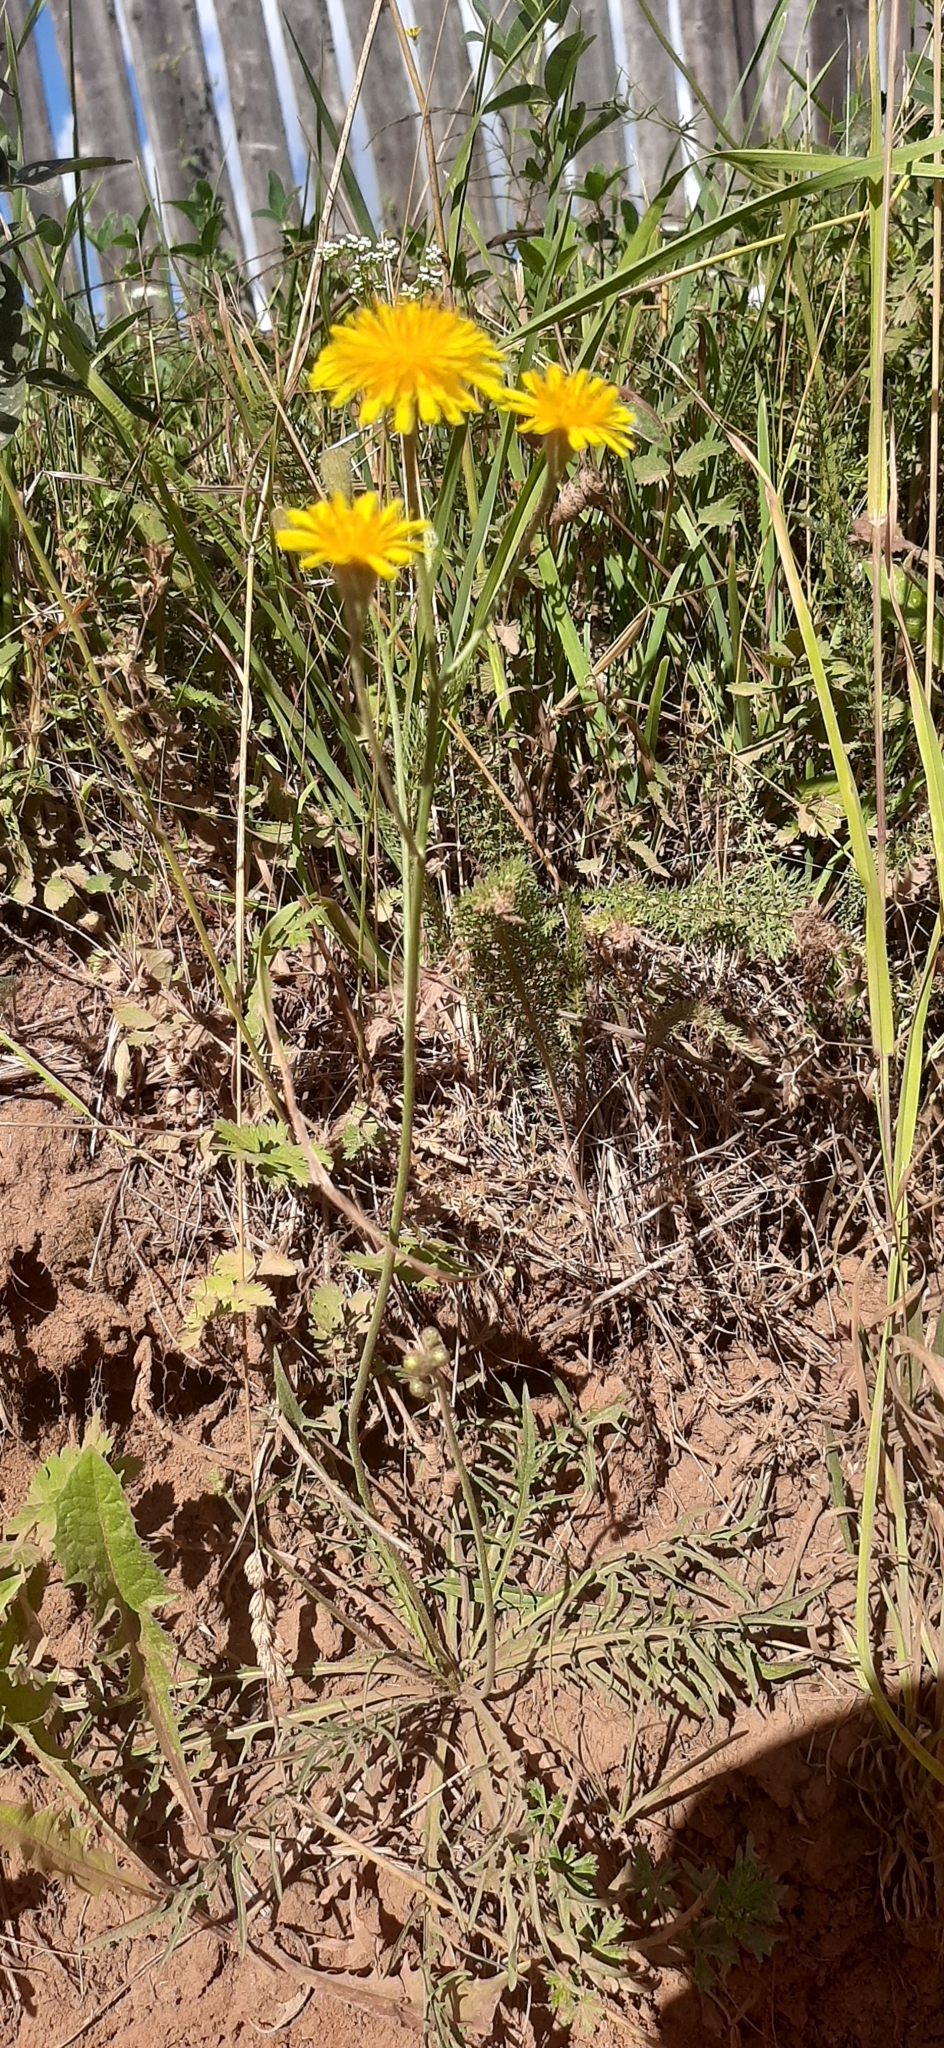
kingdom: Plantae
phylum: Tracheophyta
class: Magnoliopsida
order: Asterales
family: Asteraceae
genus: Scorzoneroides
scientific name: Scorzoneroides autumnalis
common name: Autumn hawkbit
